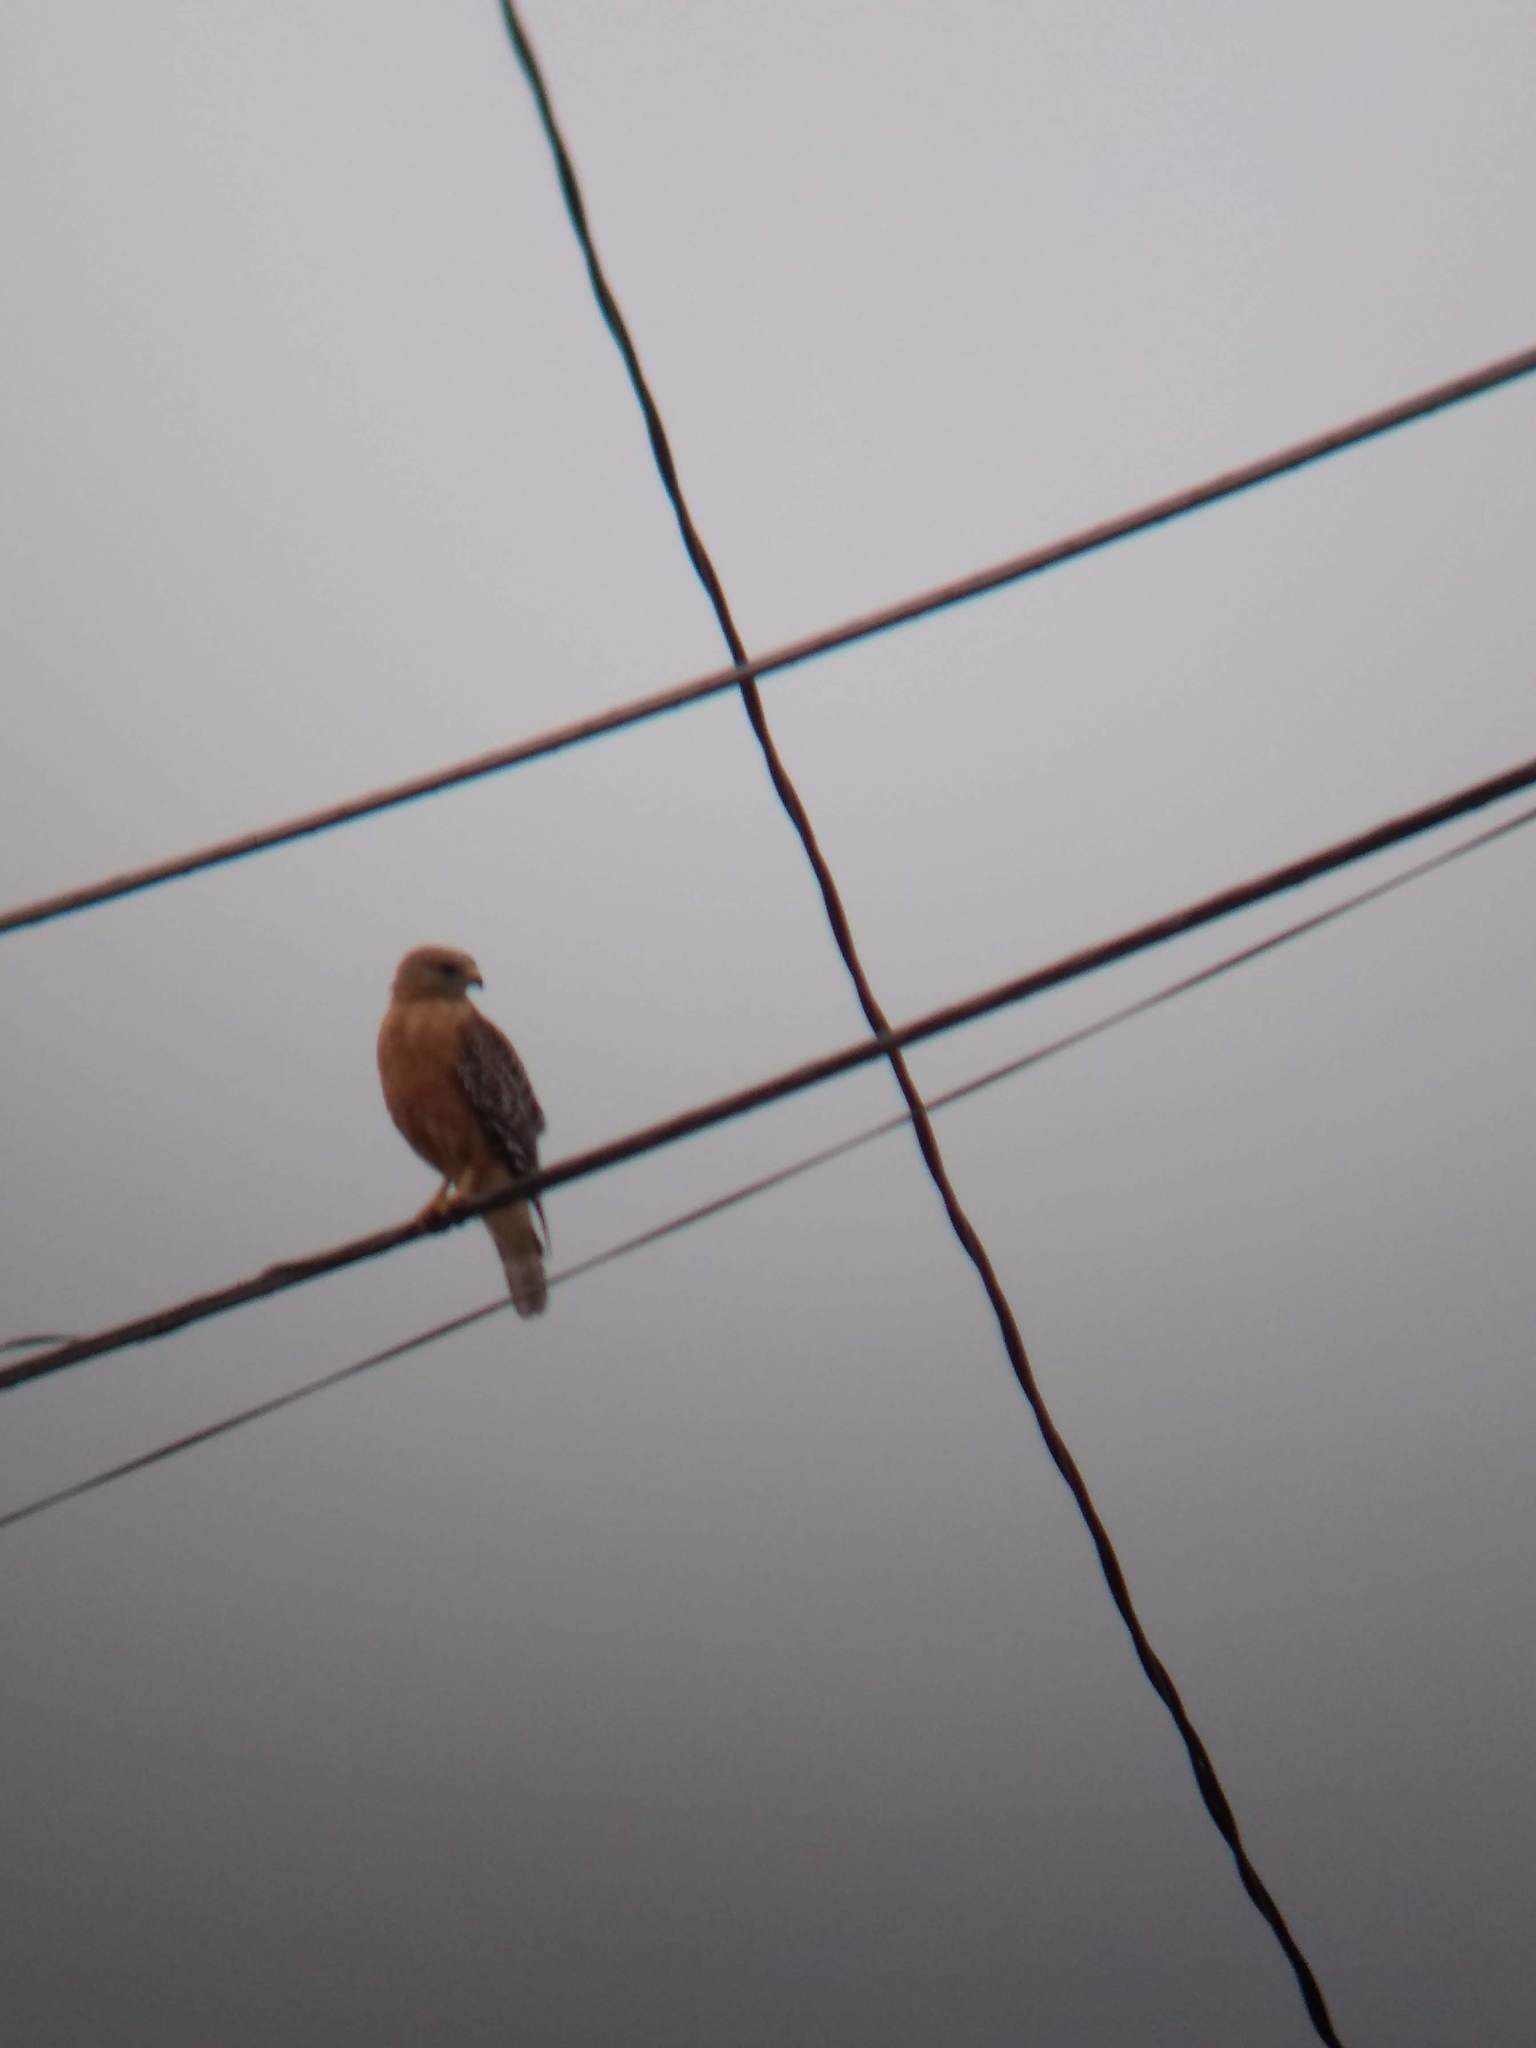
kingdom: Animalia
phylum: Chordata
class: Aves
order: Accipitriformes
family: Accipitridae
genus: Buteo
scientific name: Buteo lineatus
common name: Red-shouldered hawk
